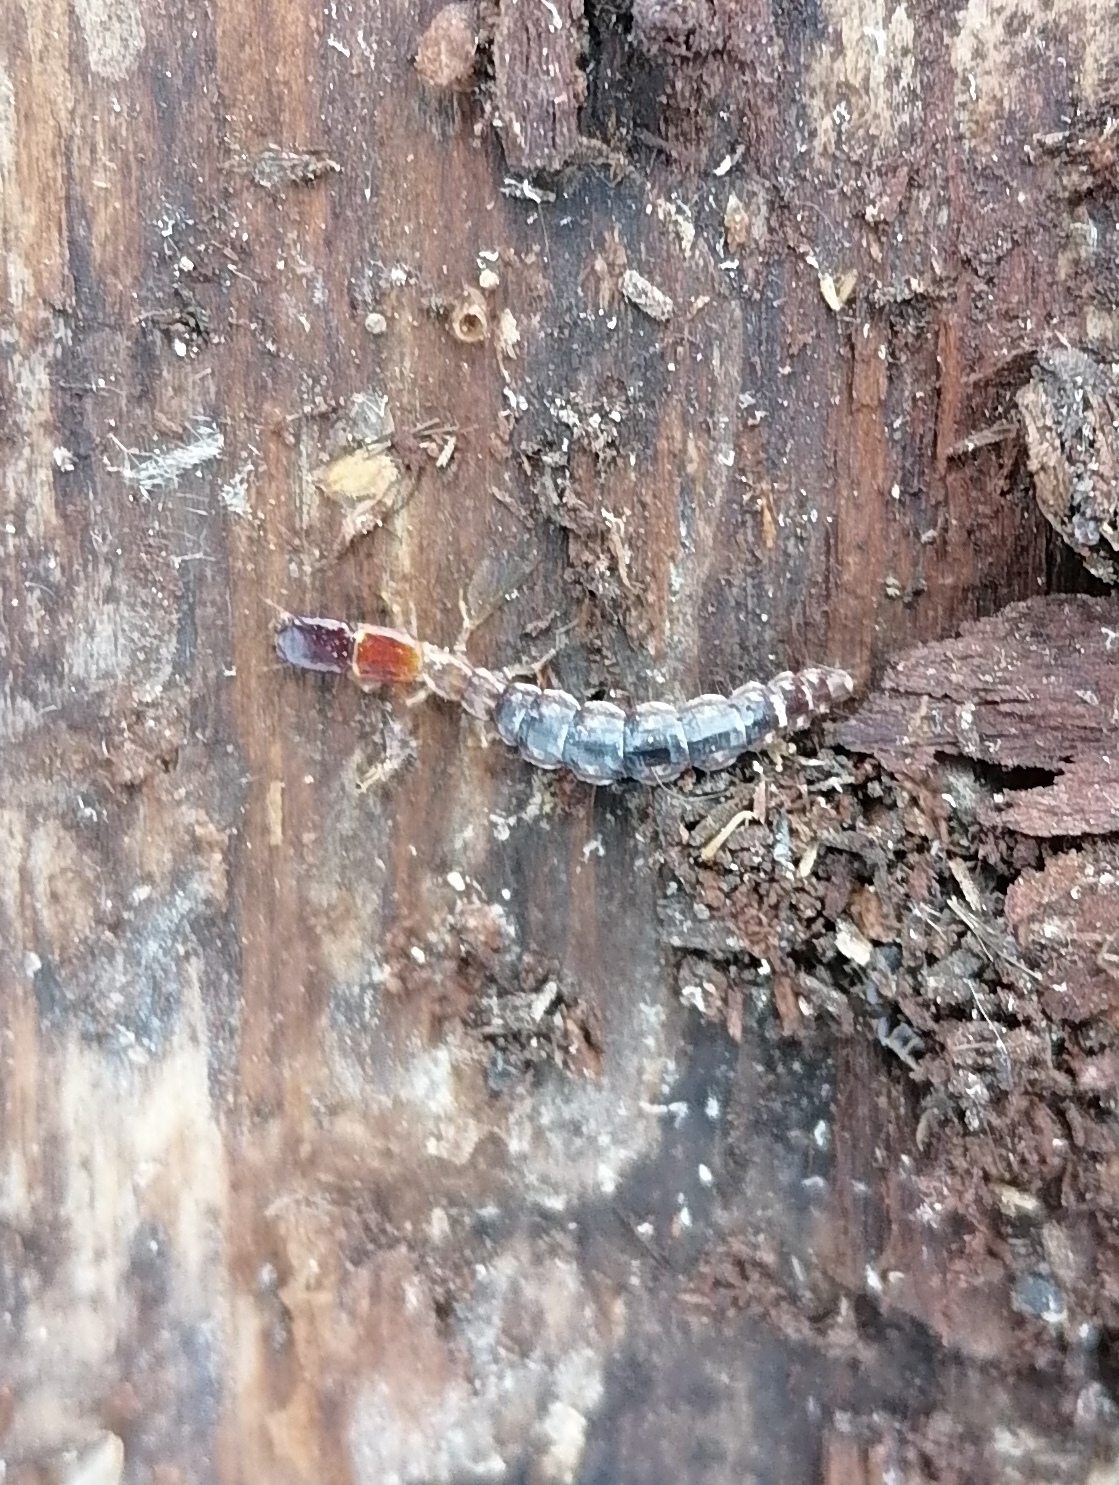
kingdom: Animalia
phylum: Arthropoda
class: Insecta
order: Raphidioptera
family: Inocelliidae
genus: Inocellia
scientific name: Inocellia crassicornis
